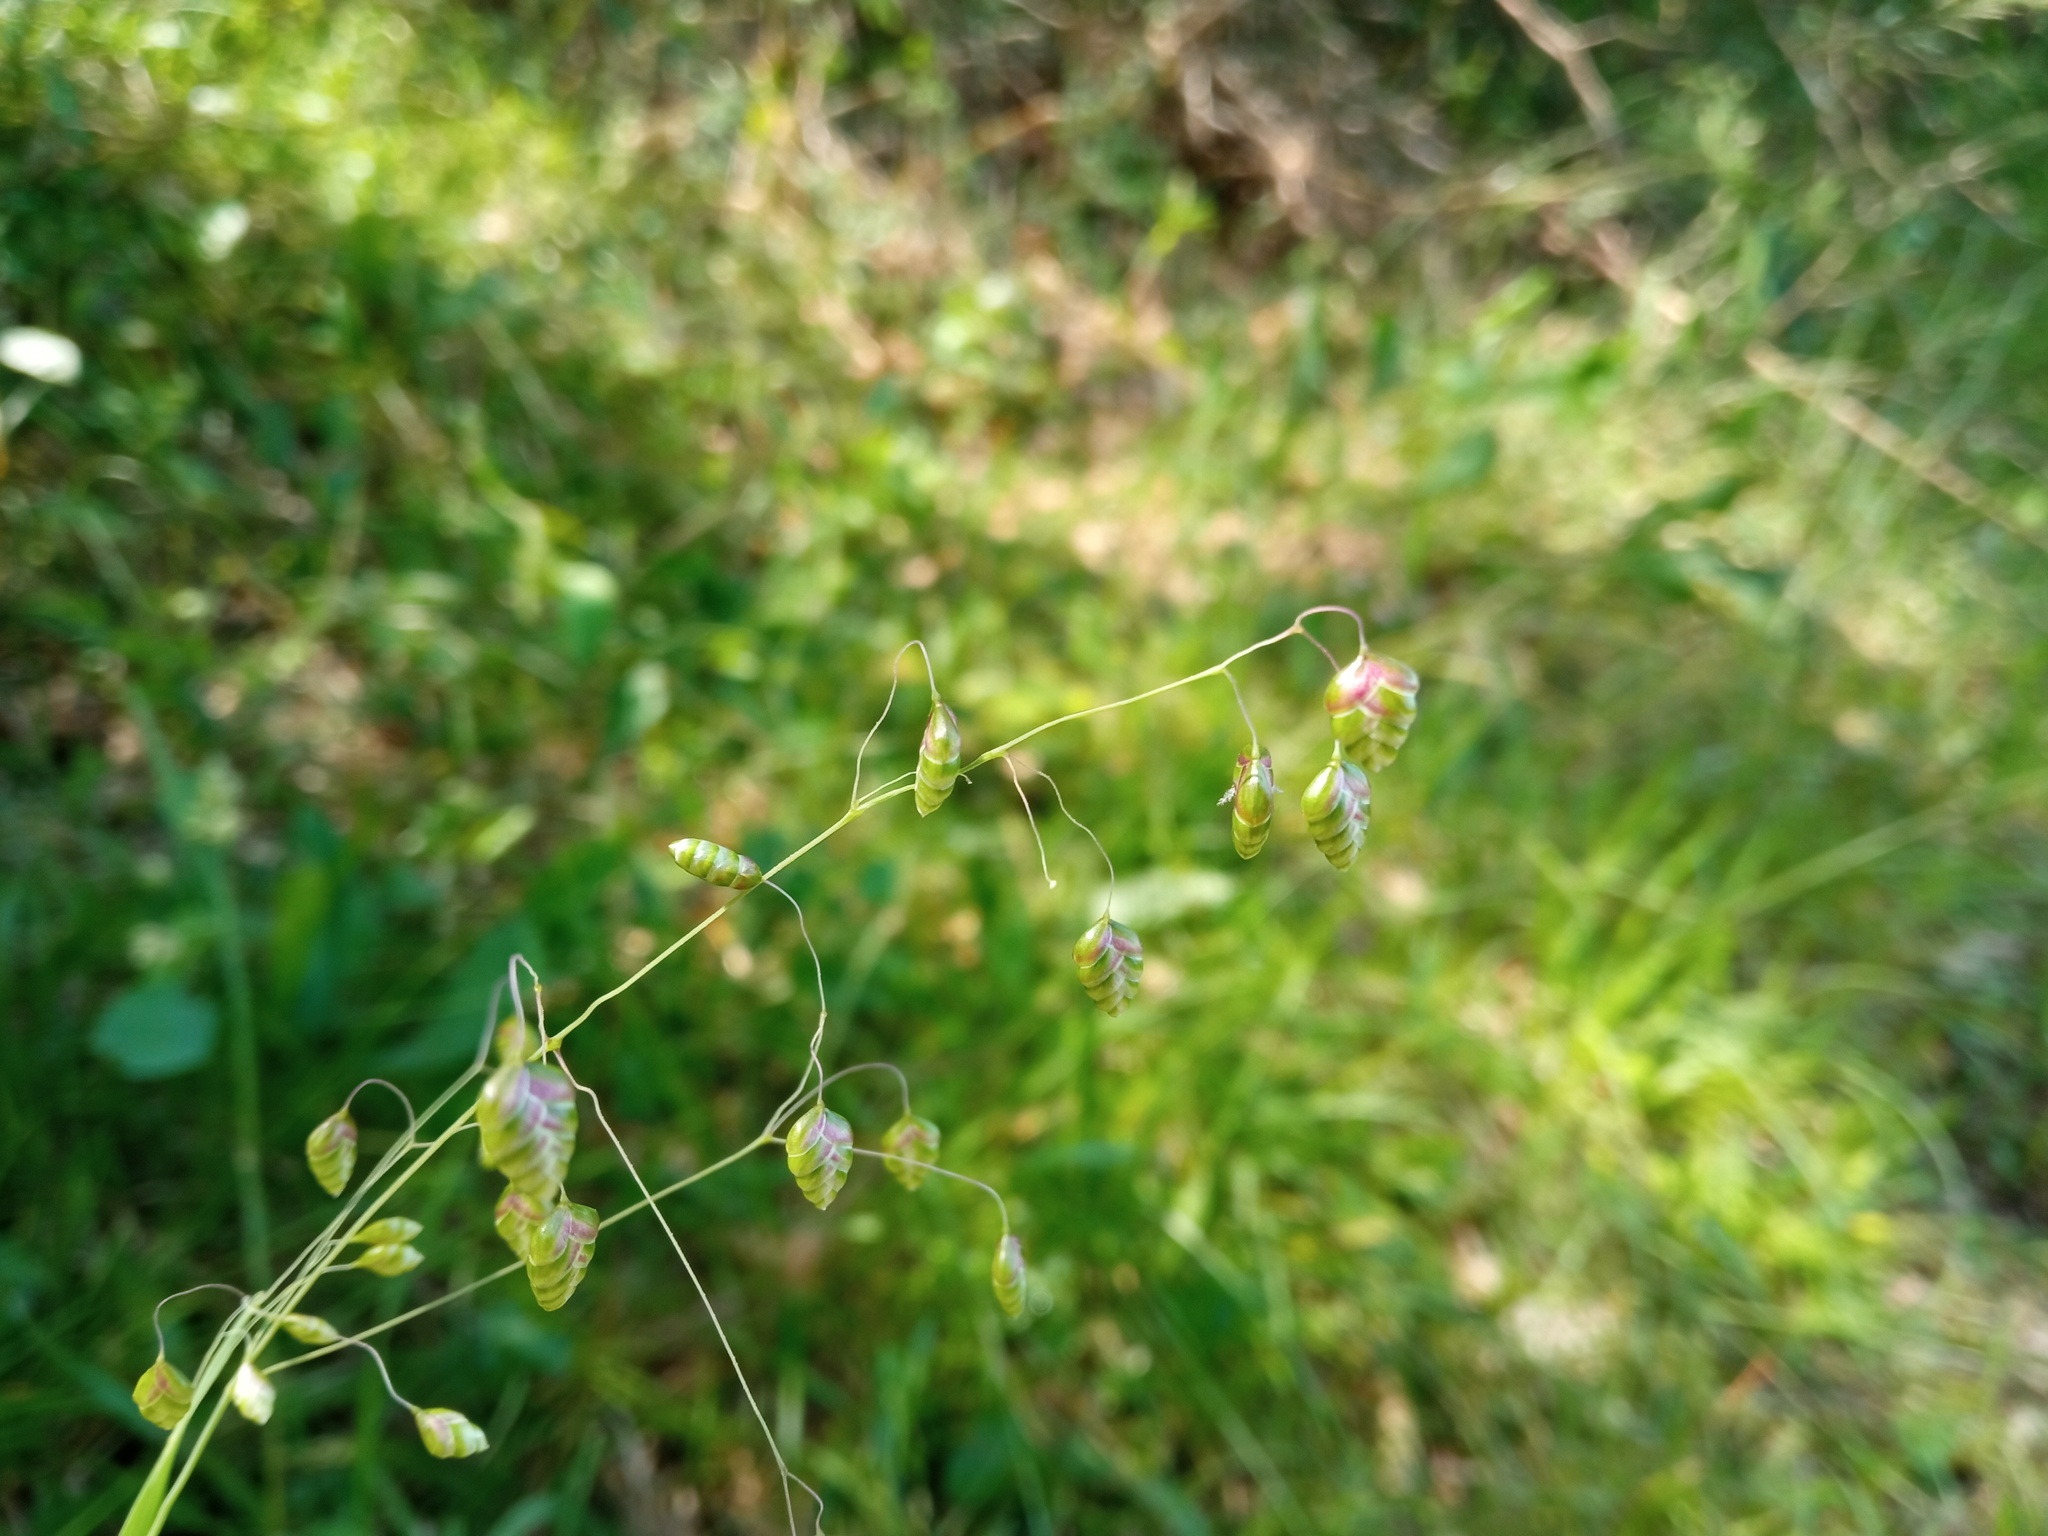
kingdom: Plantae
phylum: Tracheophyta
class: Liliopsida
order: Poales
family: Poaceae
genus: Briza
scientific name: Briza media
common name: Quaking grass
